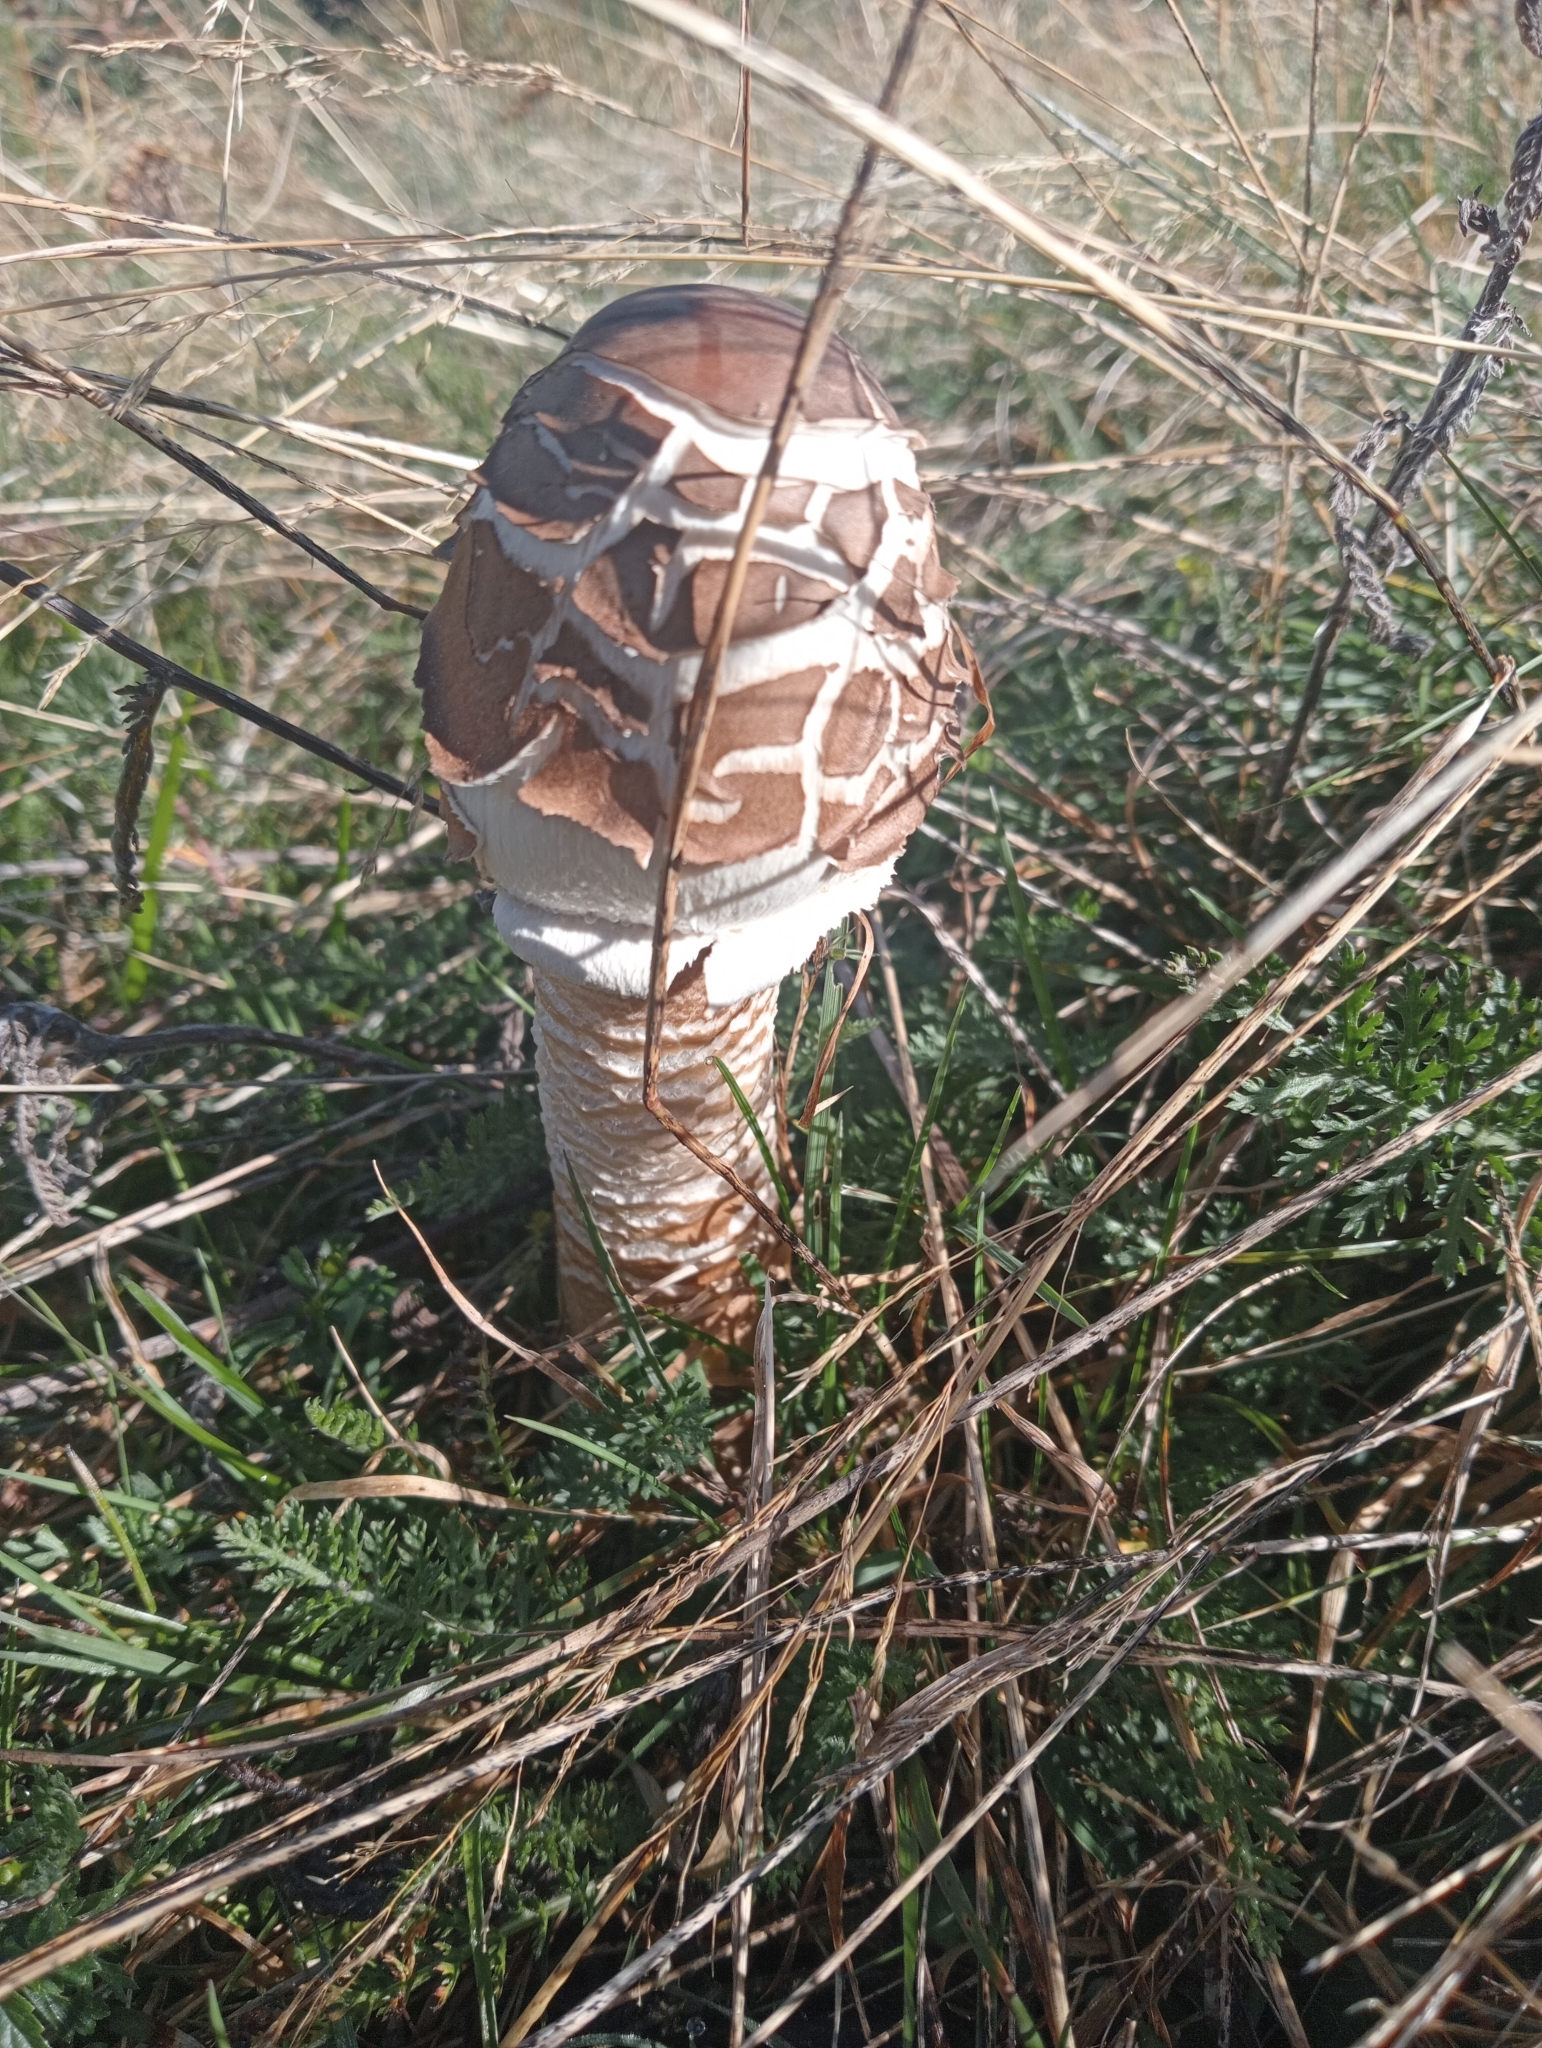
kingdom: Fungi
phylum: Basidiomycota
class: Agaricomycetes
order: Agaricales
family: Agaricaceae
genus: Macrolepiota
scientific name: Macrolepiota procera
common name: Parasol
